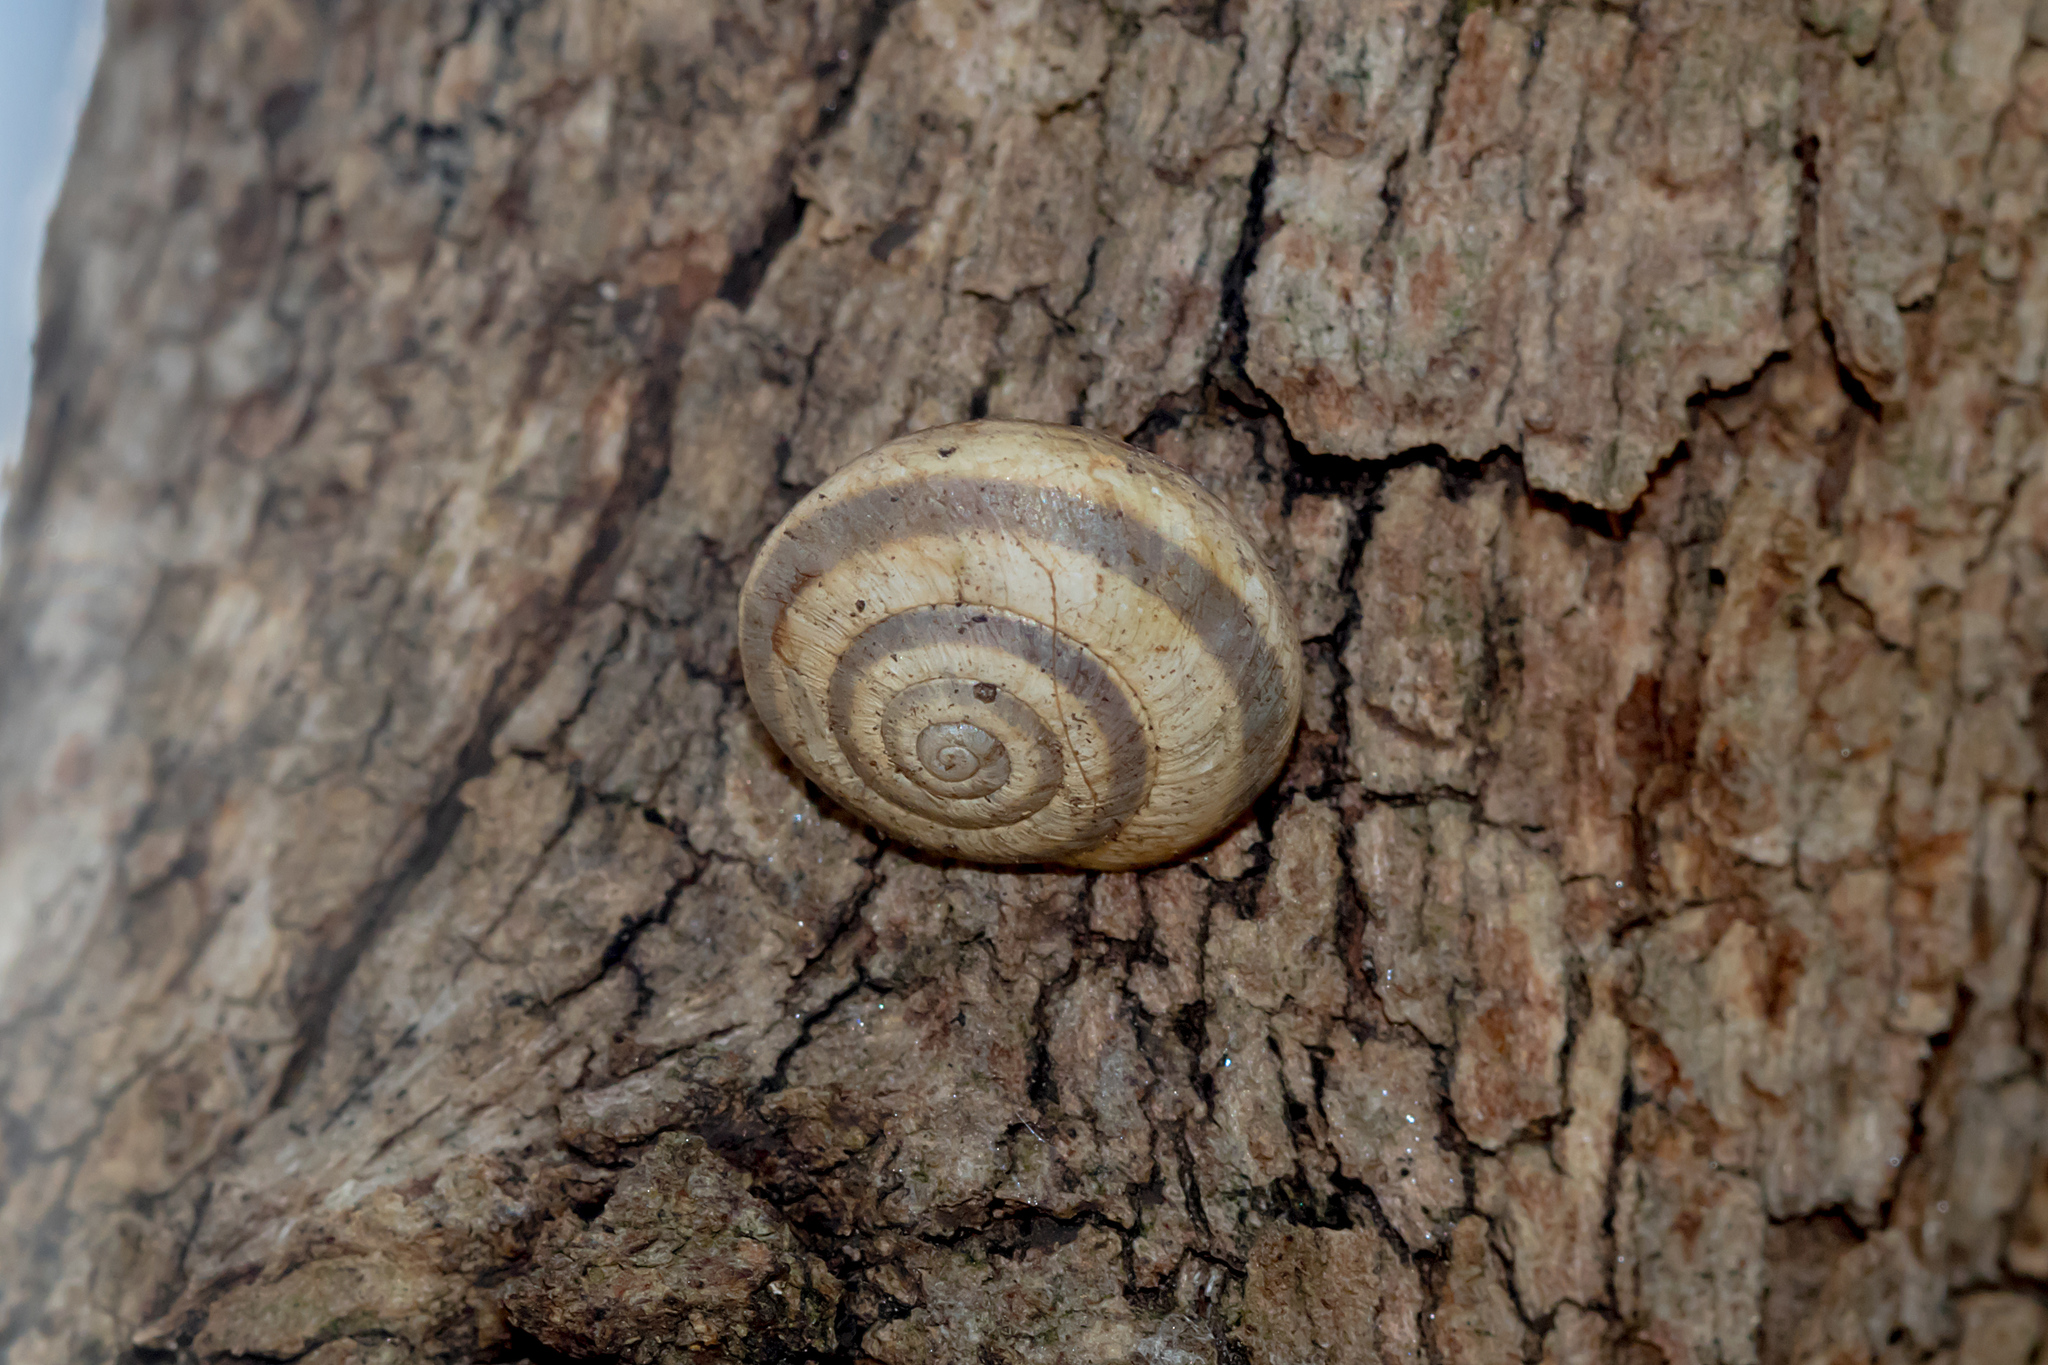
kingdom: Animalia
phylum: Mollusca
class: Gastropoda
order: Stylommatophora
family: Geomitridae
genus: Cernuella
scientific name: Cernuella virgata
